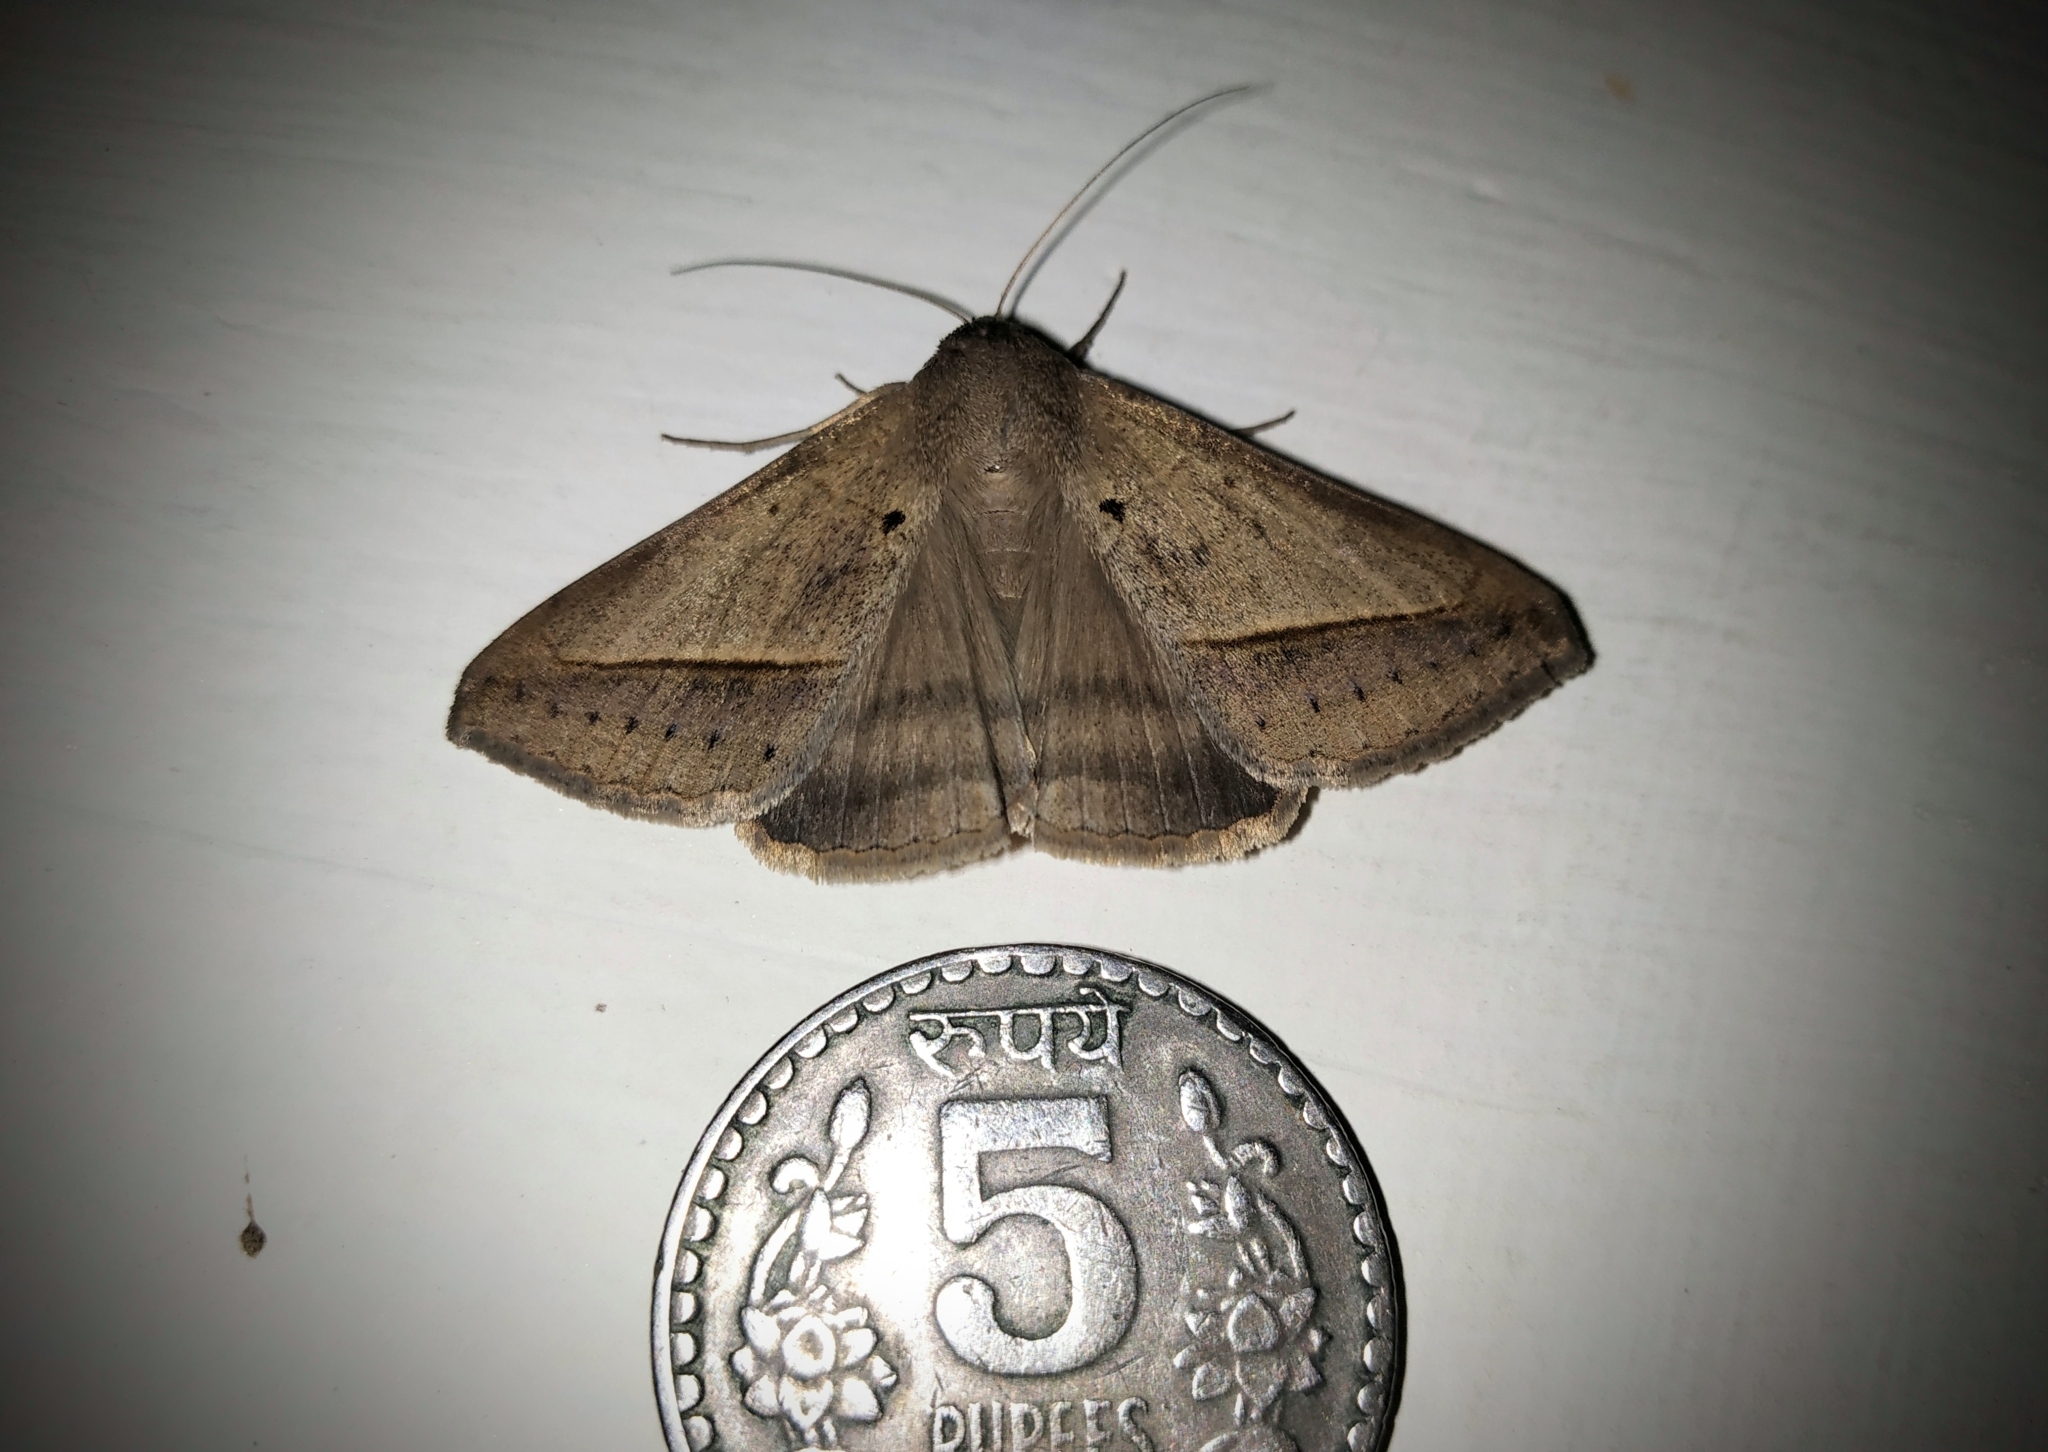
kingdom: Animalia
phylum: Arthropoda
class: Insecta
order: Lepidoptera
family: Erebidae
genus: Mocis
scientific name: Mocis frugalis
